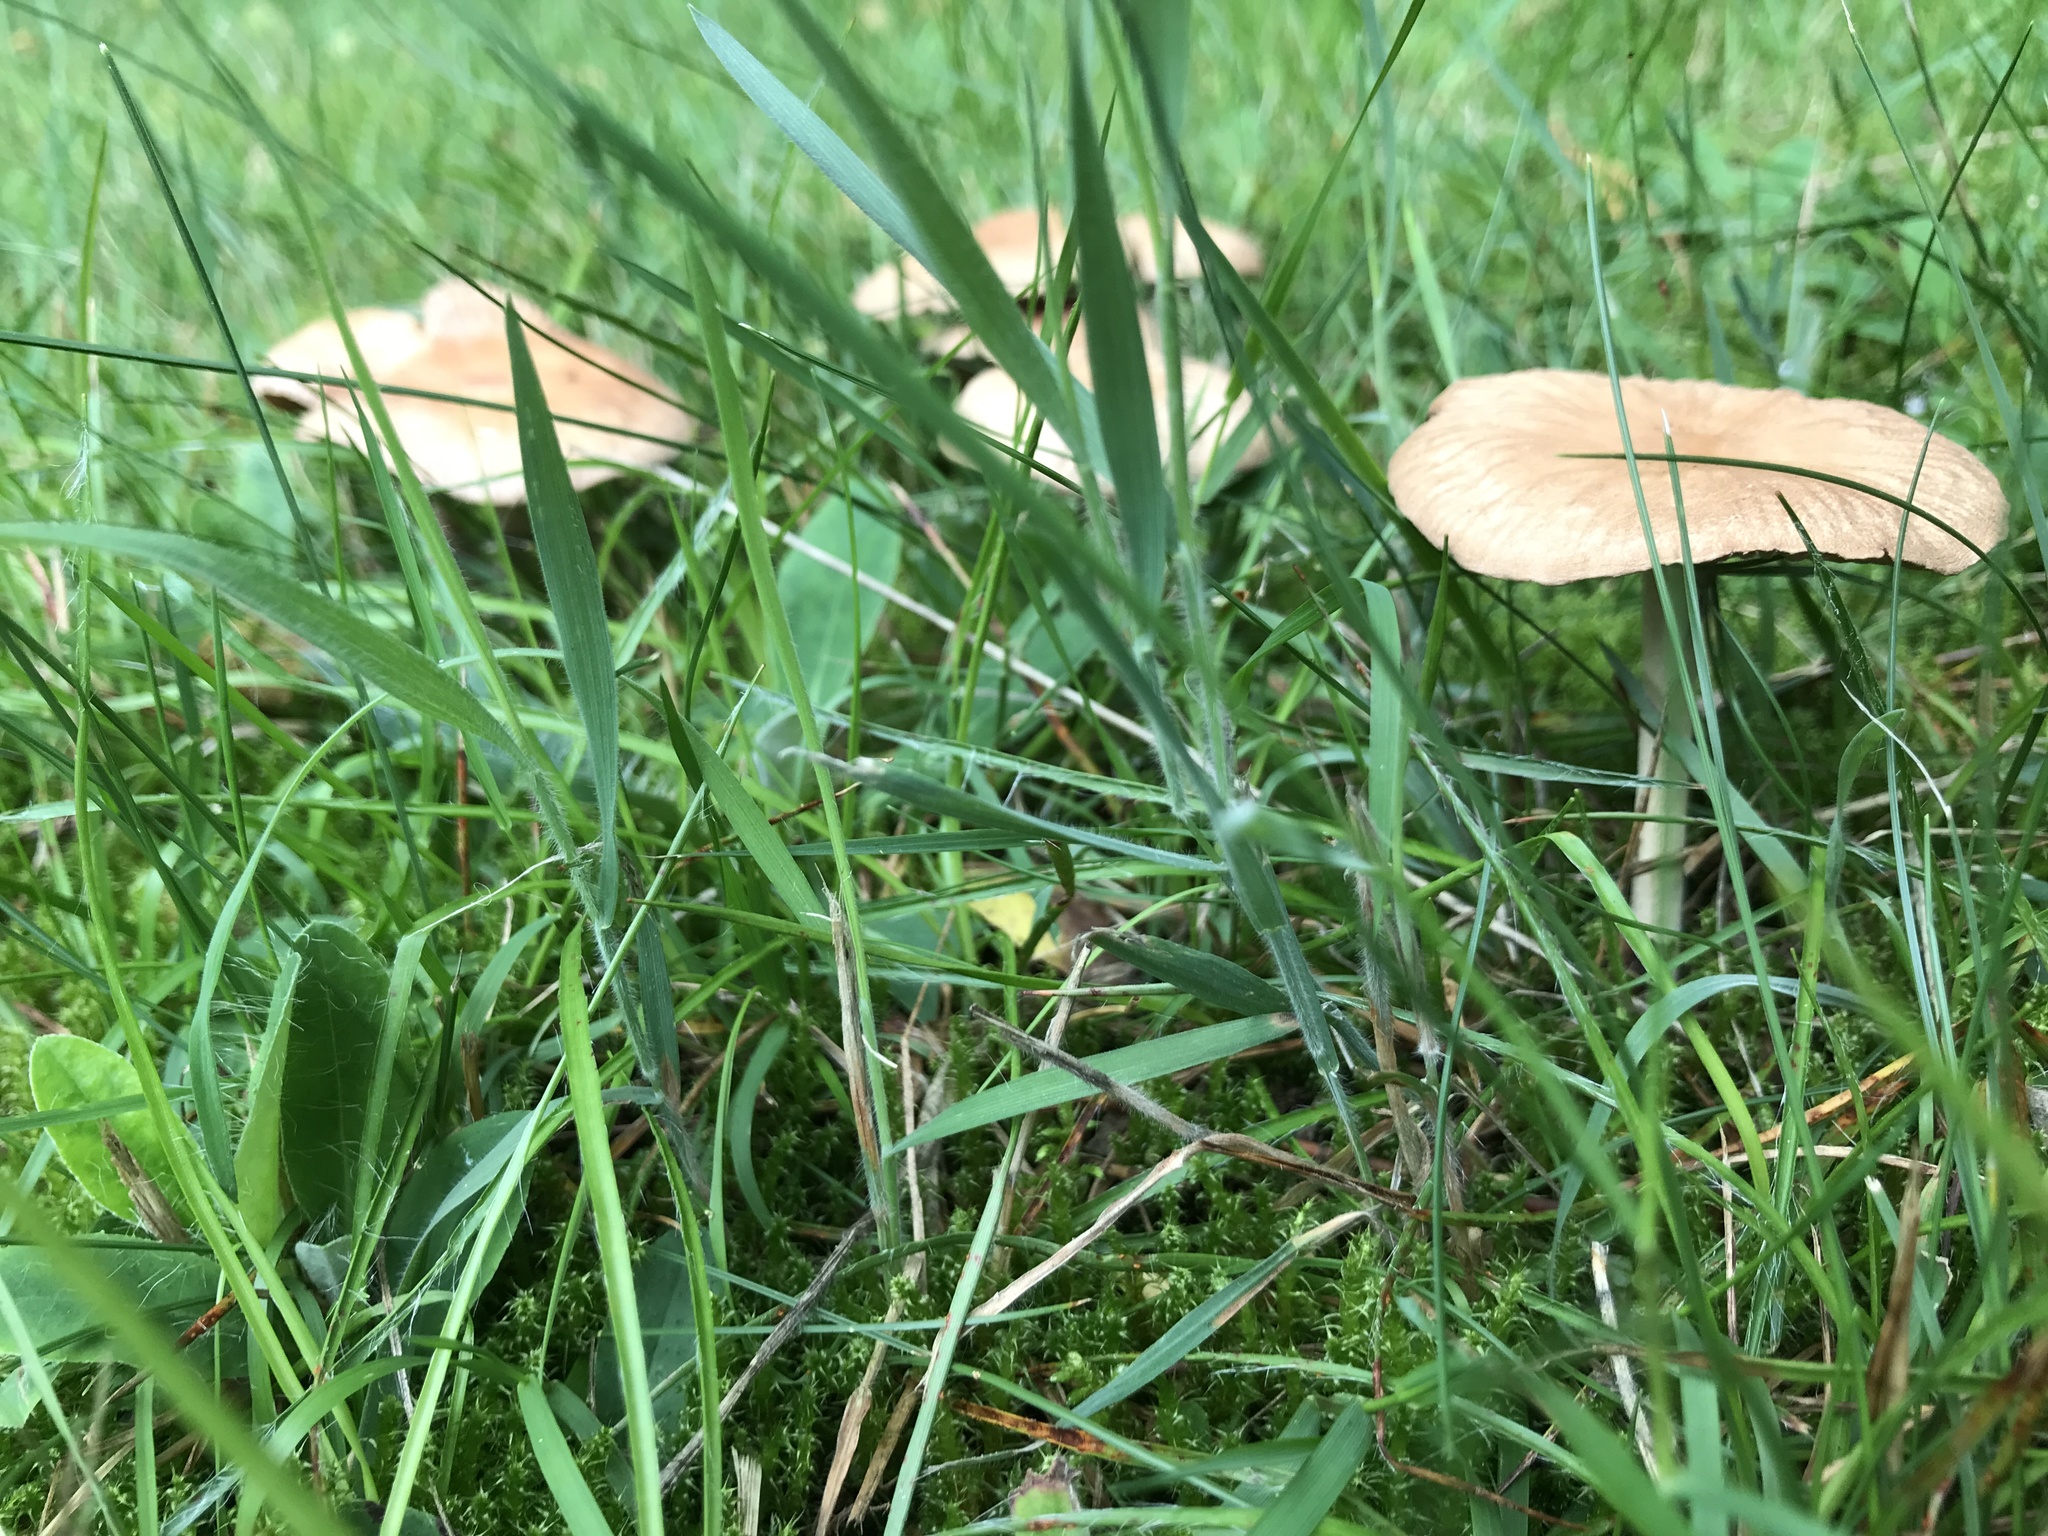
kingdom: Fungi
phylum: Basidiomycota
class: Agaricomycetes
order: Agaricales
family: Marasmiaceae
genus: Marasmius
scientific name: Marasmius oreades
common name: Fairy ring champignon
